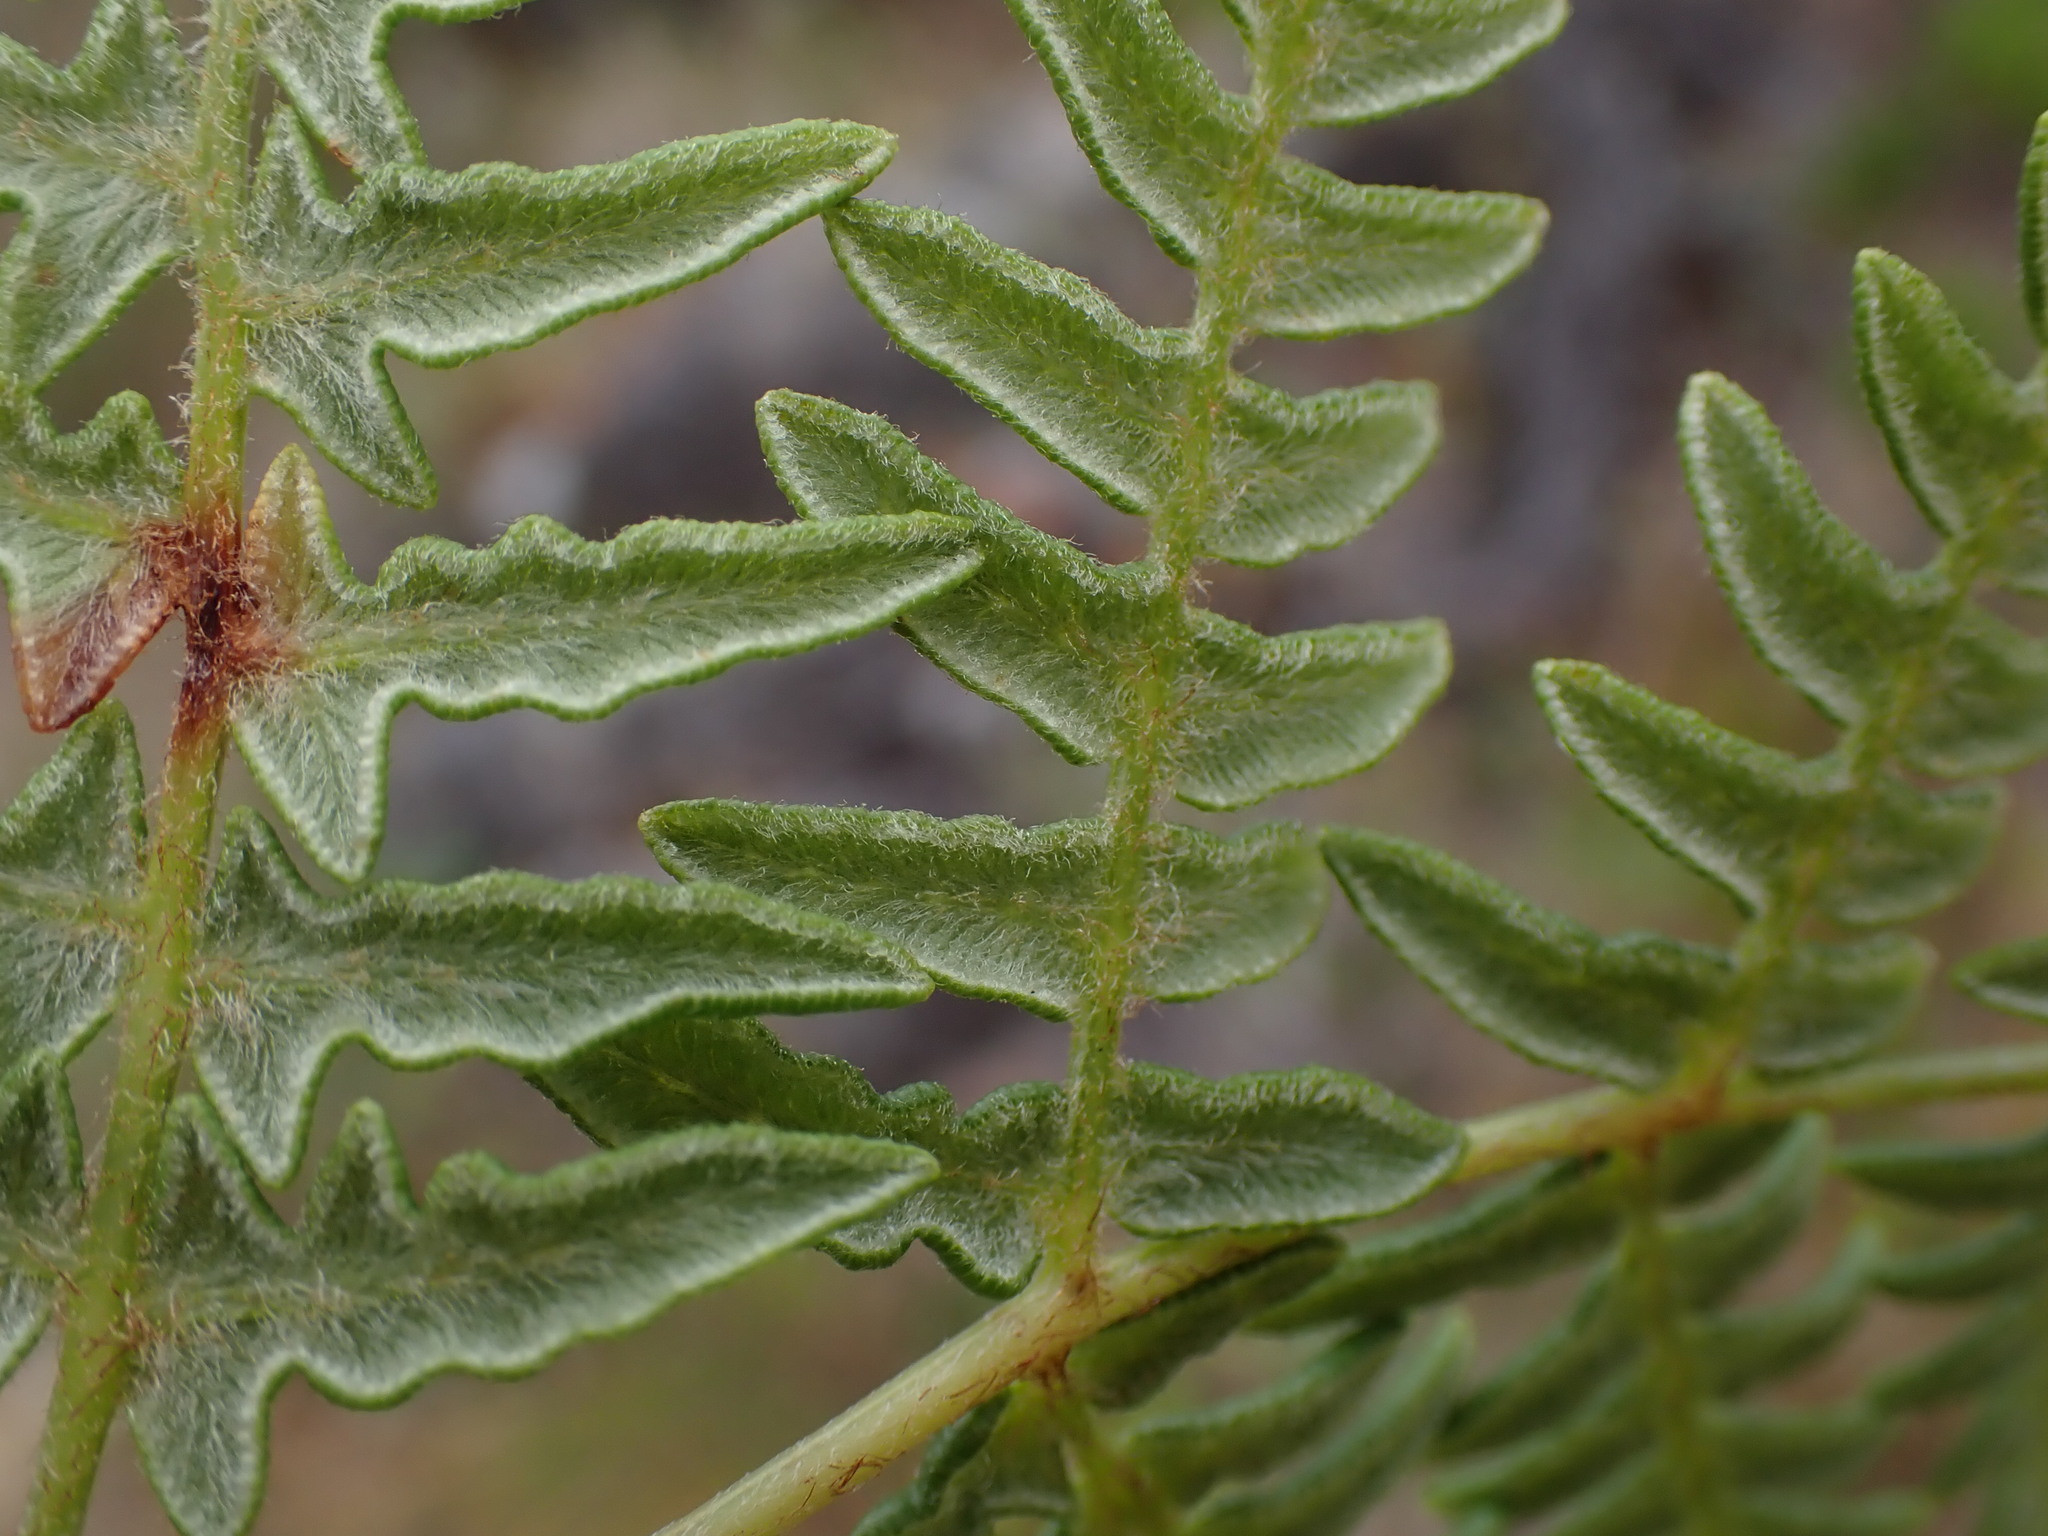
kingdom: Plantae
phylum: Tracheophyta
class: Polypodiopsida
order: Polypodiales
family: Dennstaedtiaceae
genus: Pteridium
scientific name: Pteridium aquilinum
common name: Bracken
